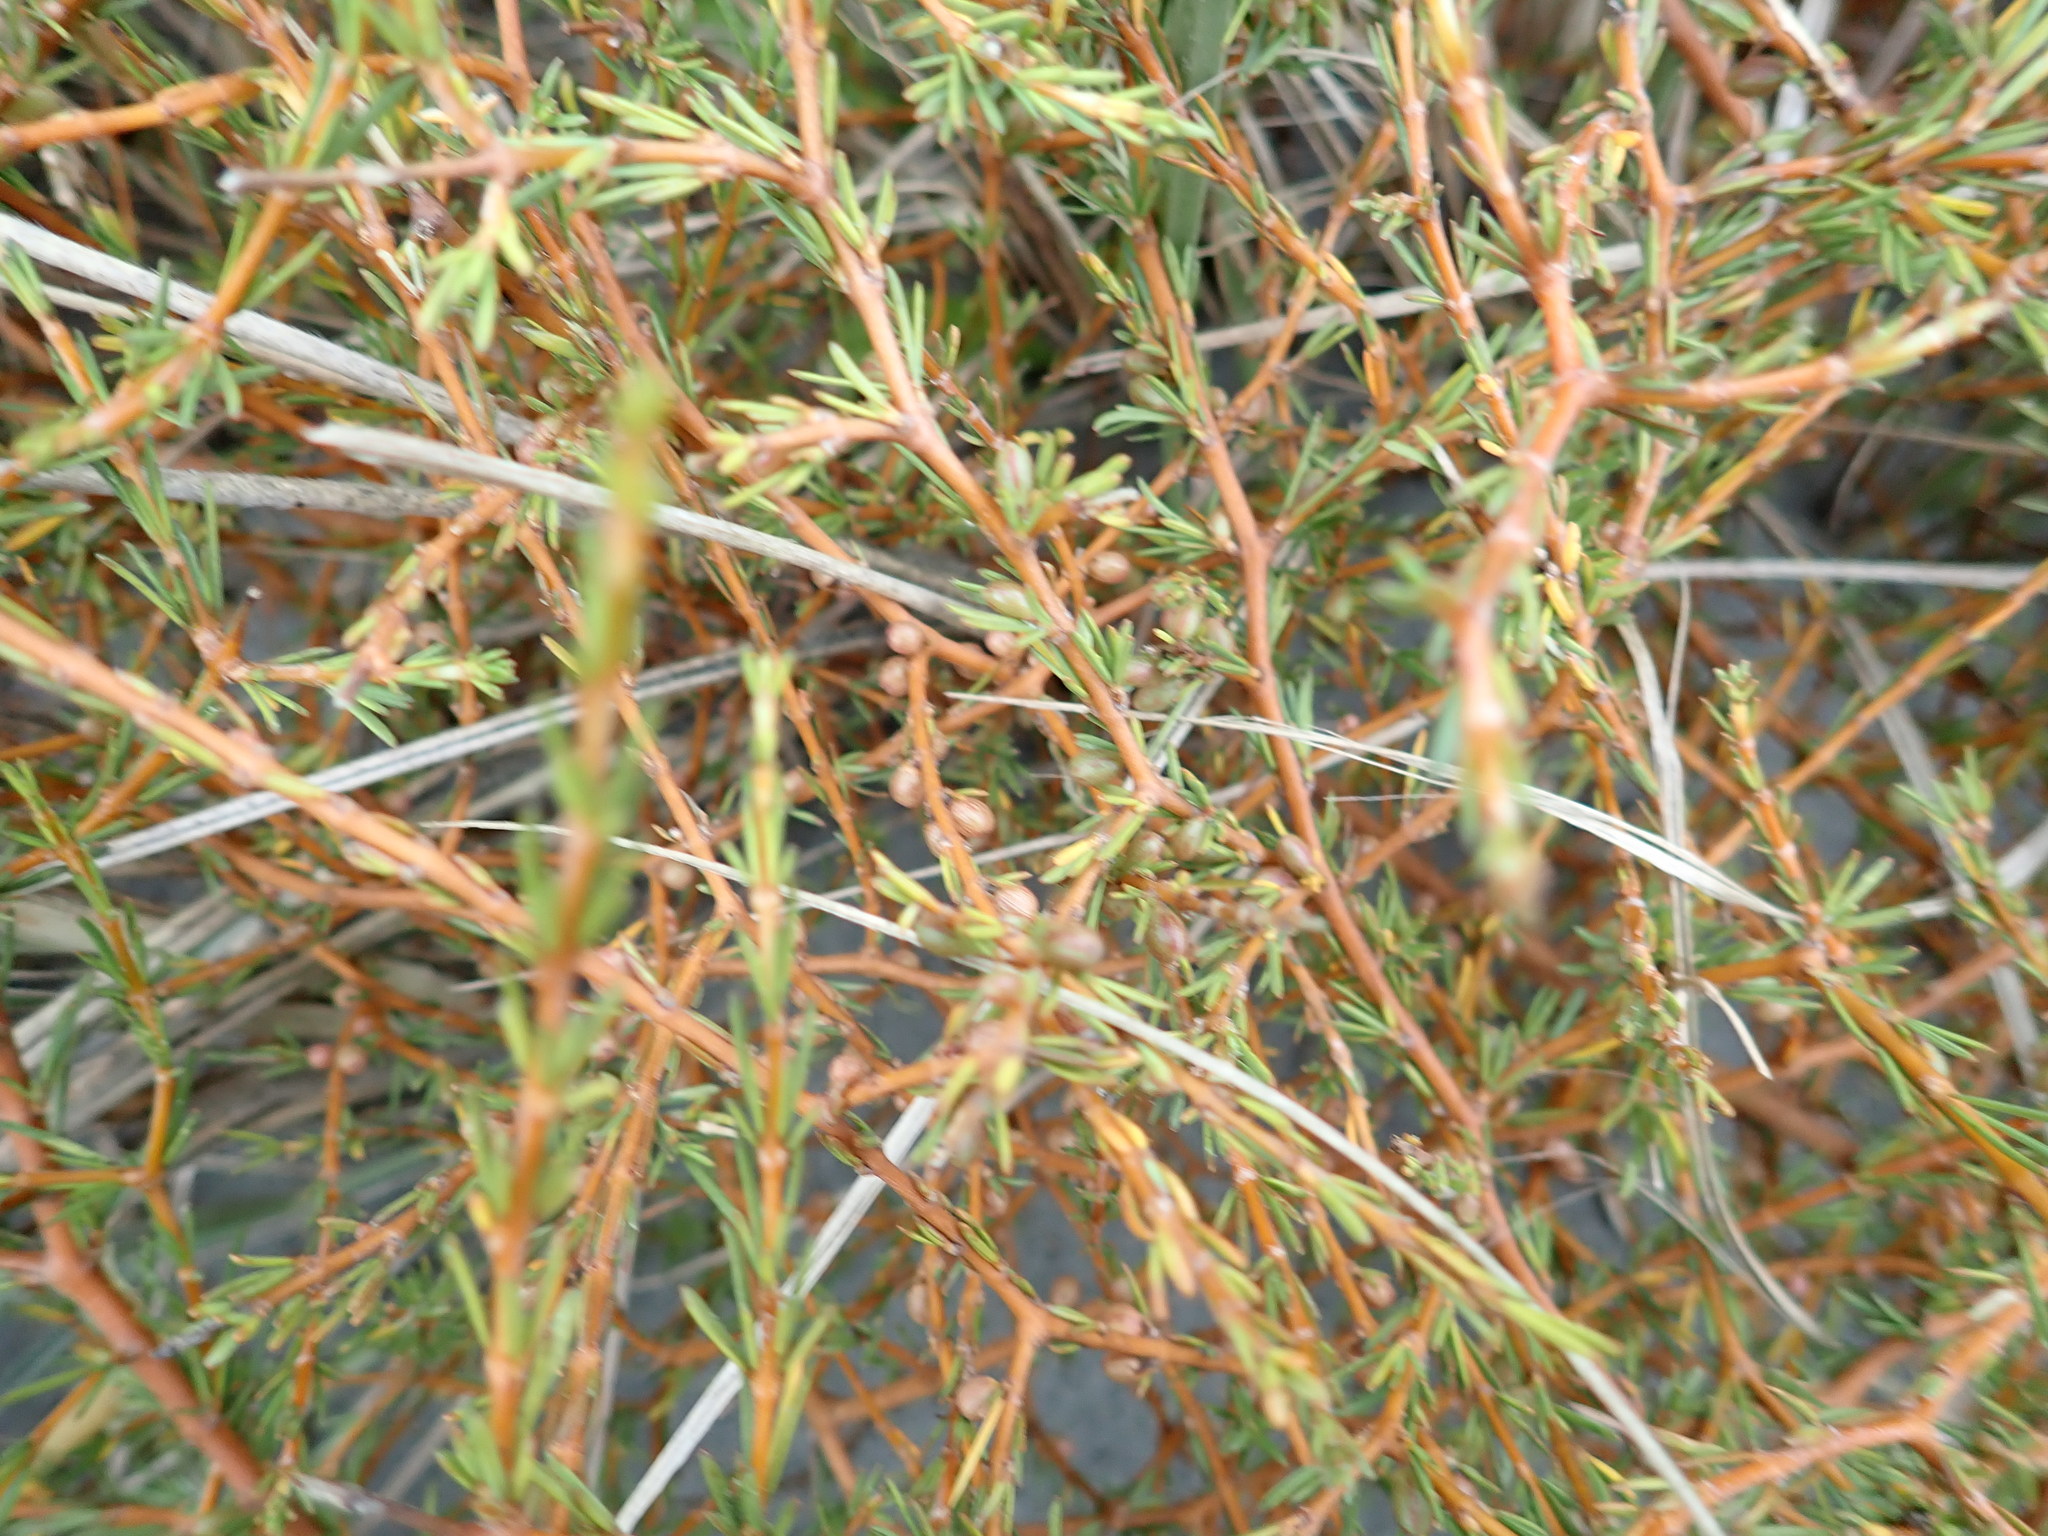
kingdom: Plantae
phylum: Tracheophyta
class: Magnoliopsida
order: Gentianales
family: Rubiaceae
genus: Coprosma
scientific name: Coprosma acerosa
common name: Sand coprosma
